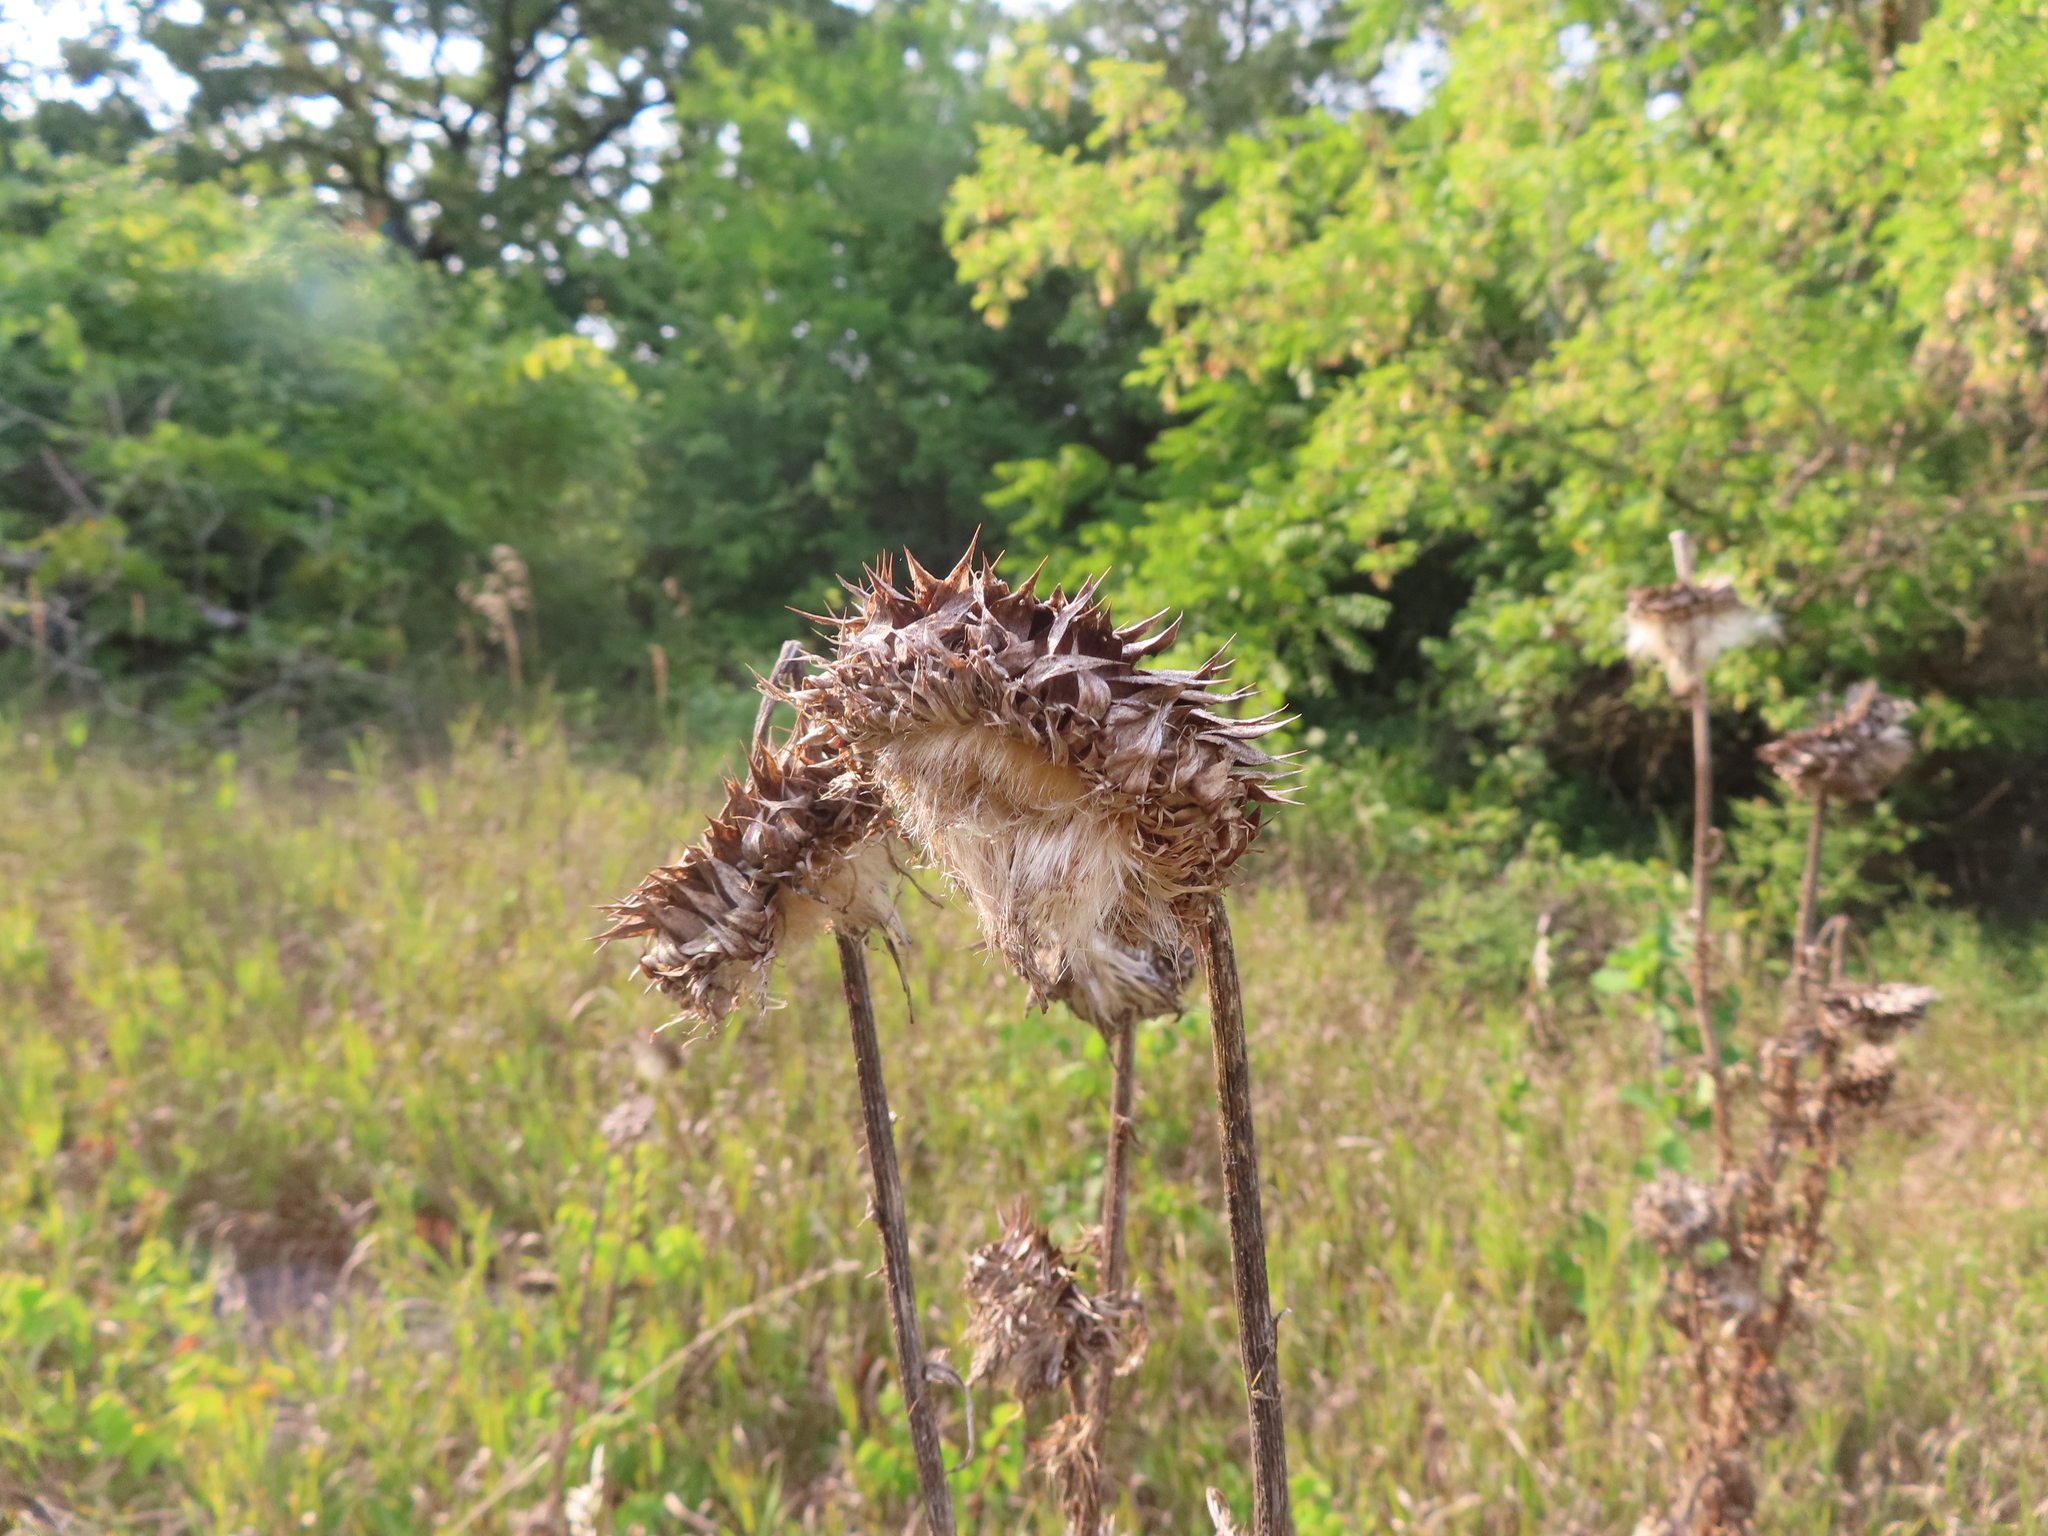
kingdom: Plantae
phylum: Tracheophyta
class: Magnoliopsida
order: Asterales
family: Asteraceae
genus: Carduus
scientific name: Carduus nutans
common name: Musk thistle
